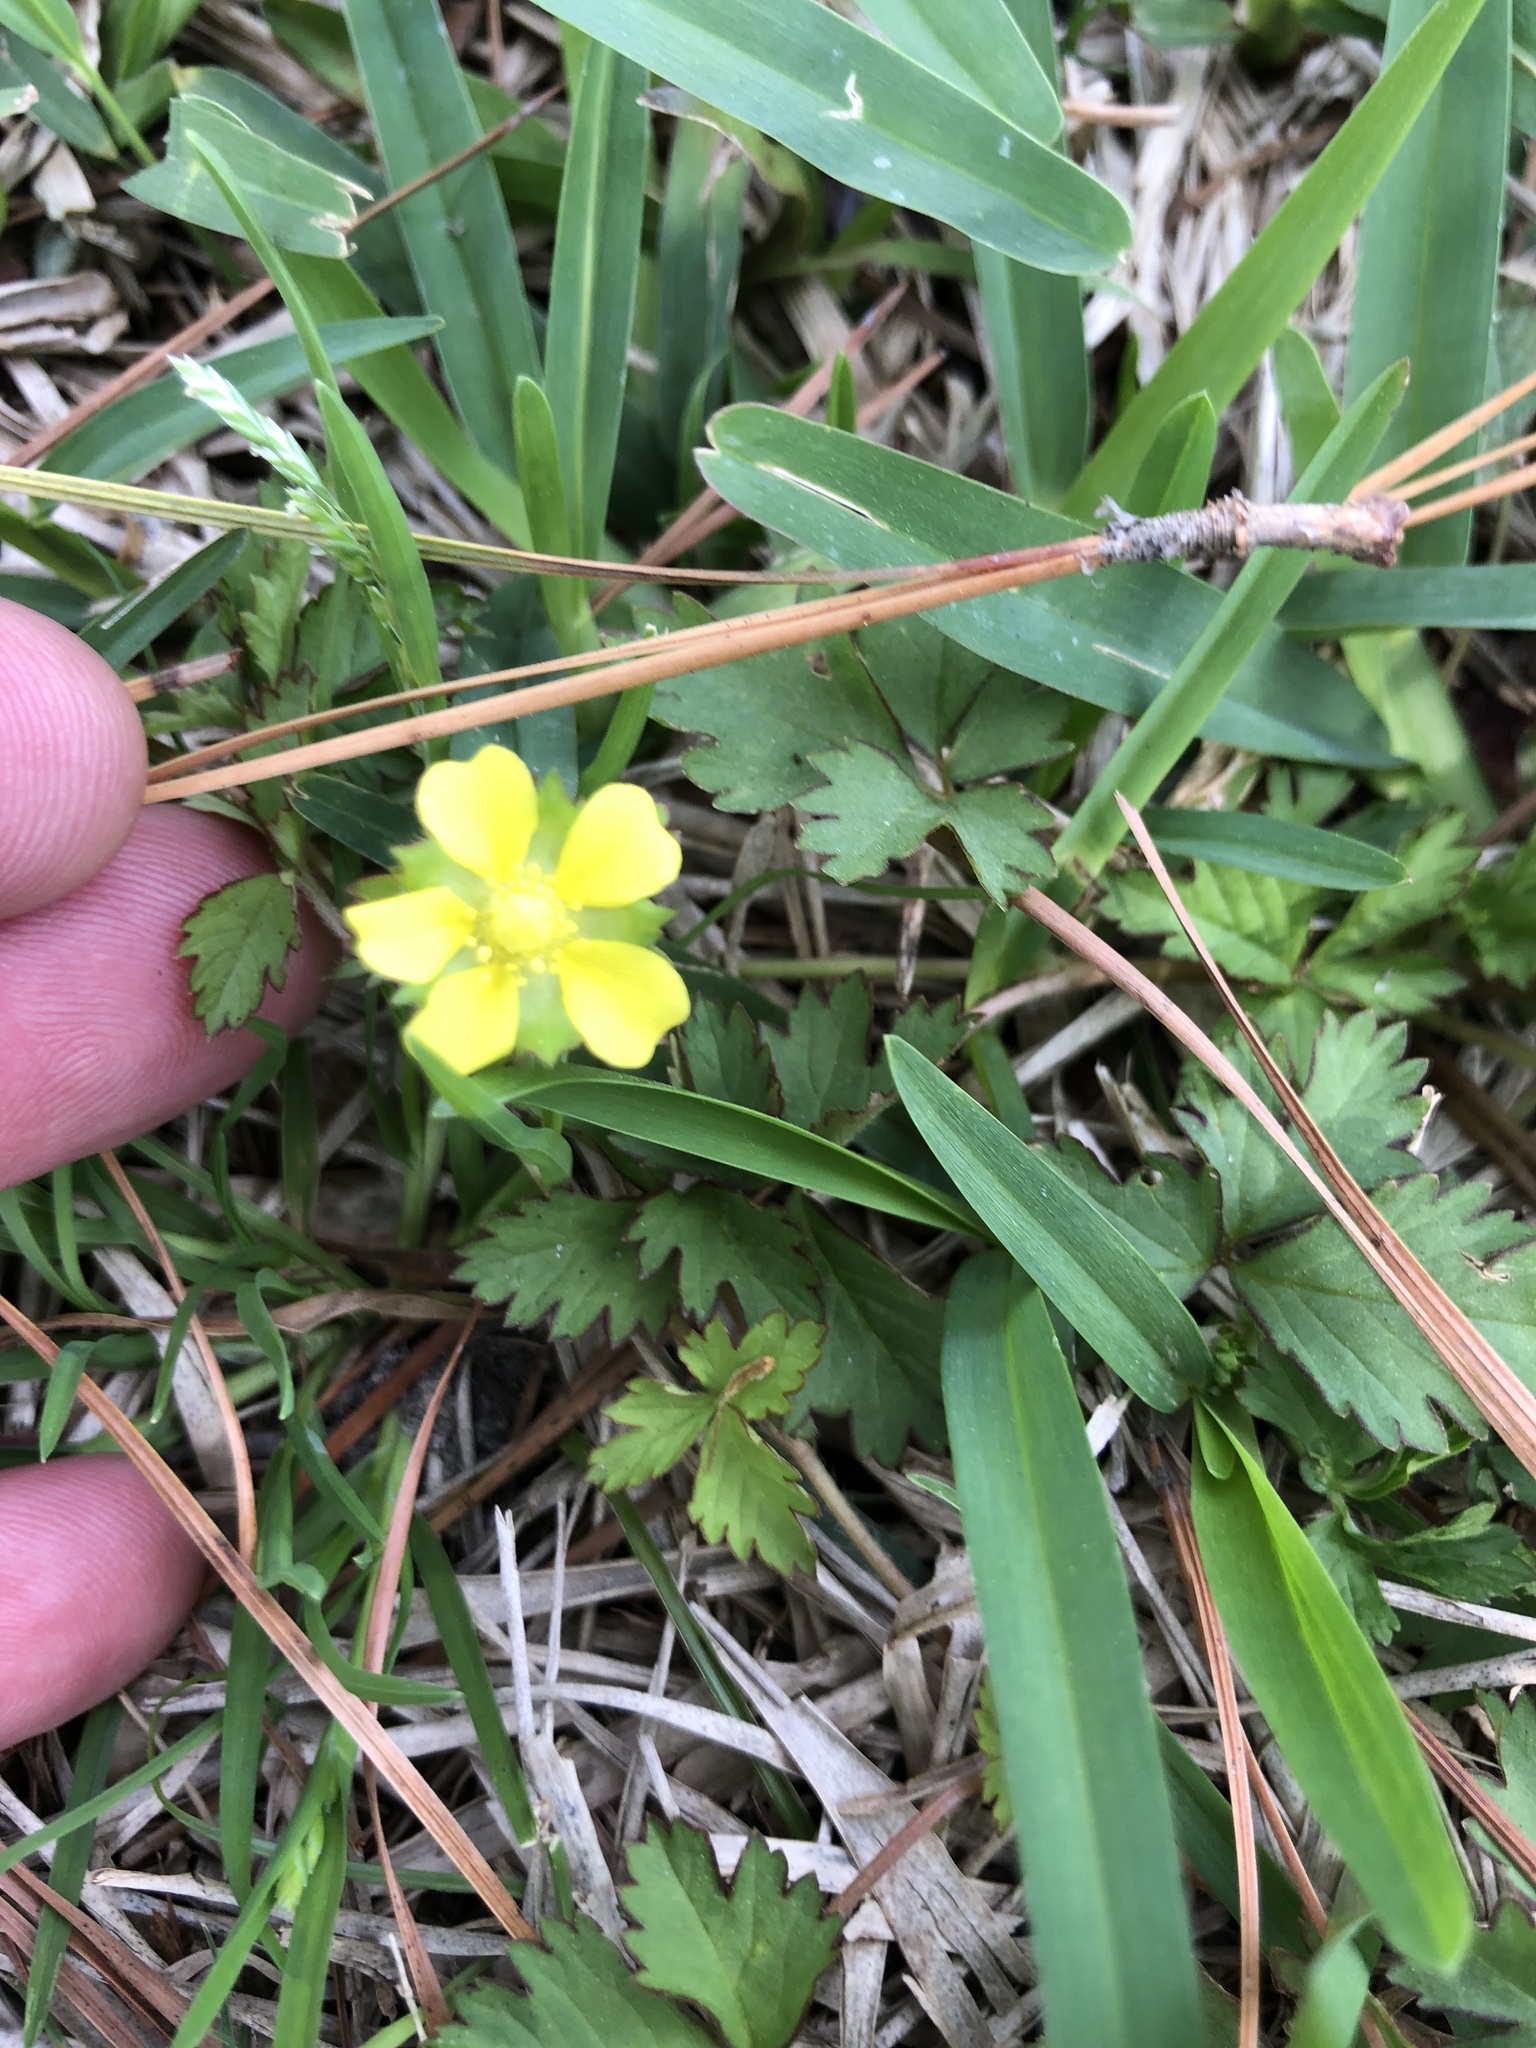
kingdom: Plantae
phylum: Tracheophyta
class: Magnoliopsida
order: Rosales
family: Rosaceae
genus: Potentilla
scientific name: Potentilla indica
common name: Yellow-flowered strawberry
